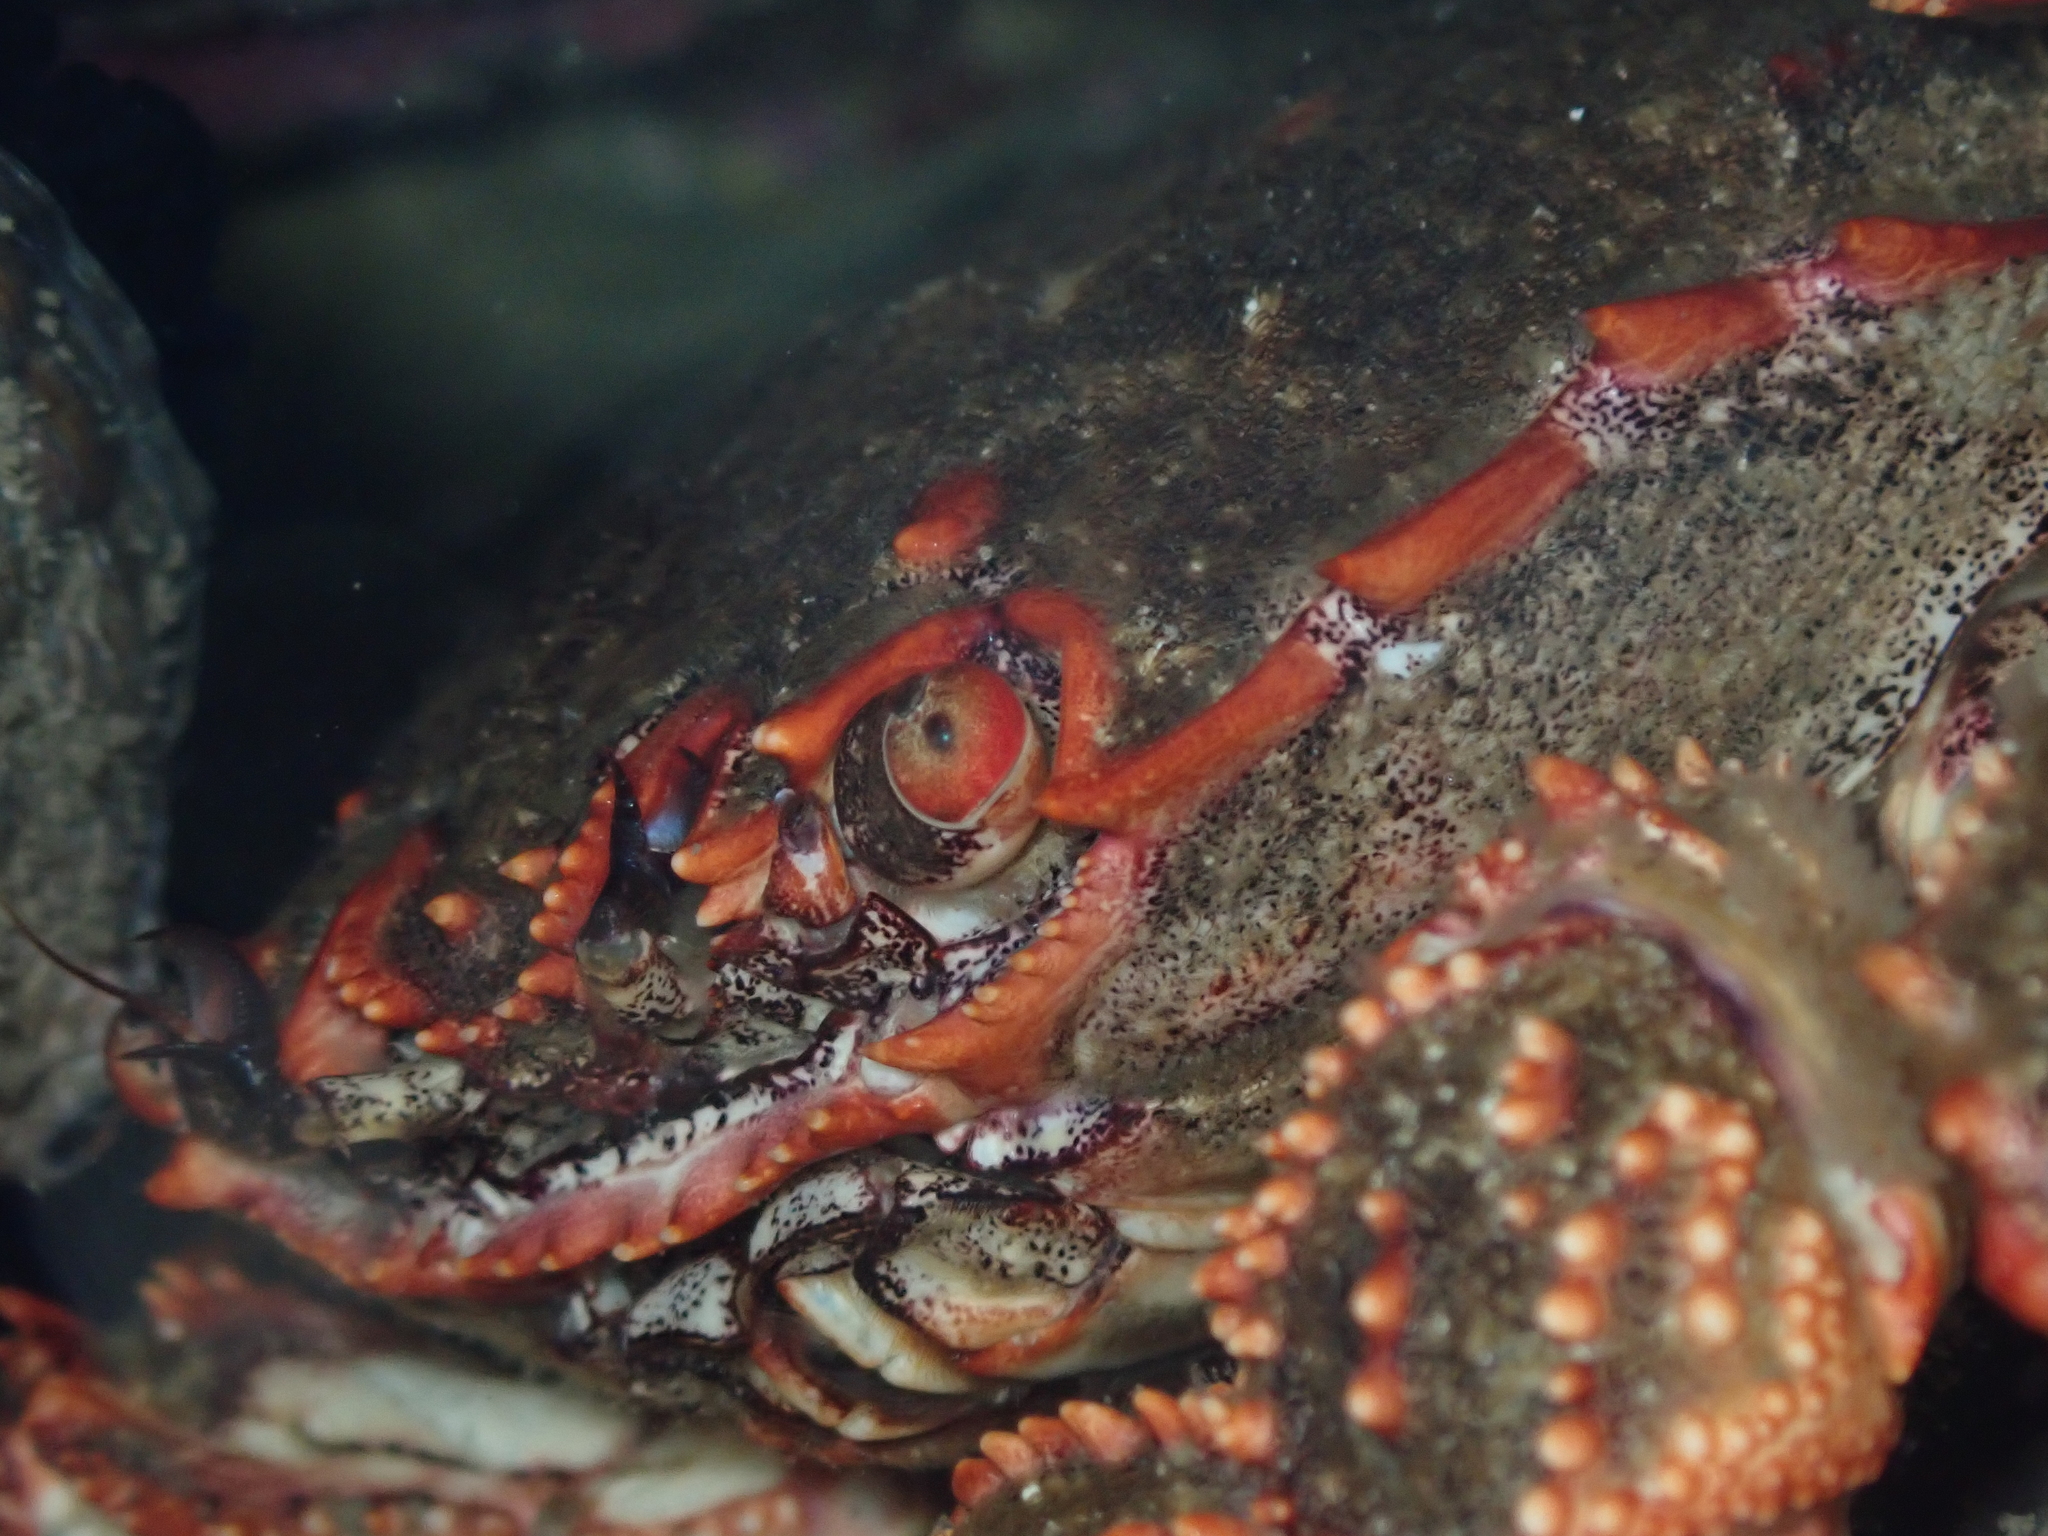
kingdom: Animalia
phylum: Arthropoda
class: Malacostraca
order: Decapoda
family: Plagusiidae
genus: Guinusia
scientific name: Guinusia chabrus
